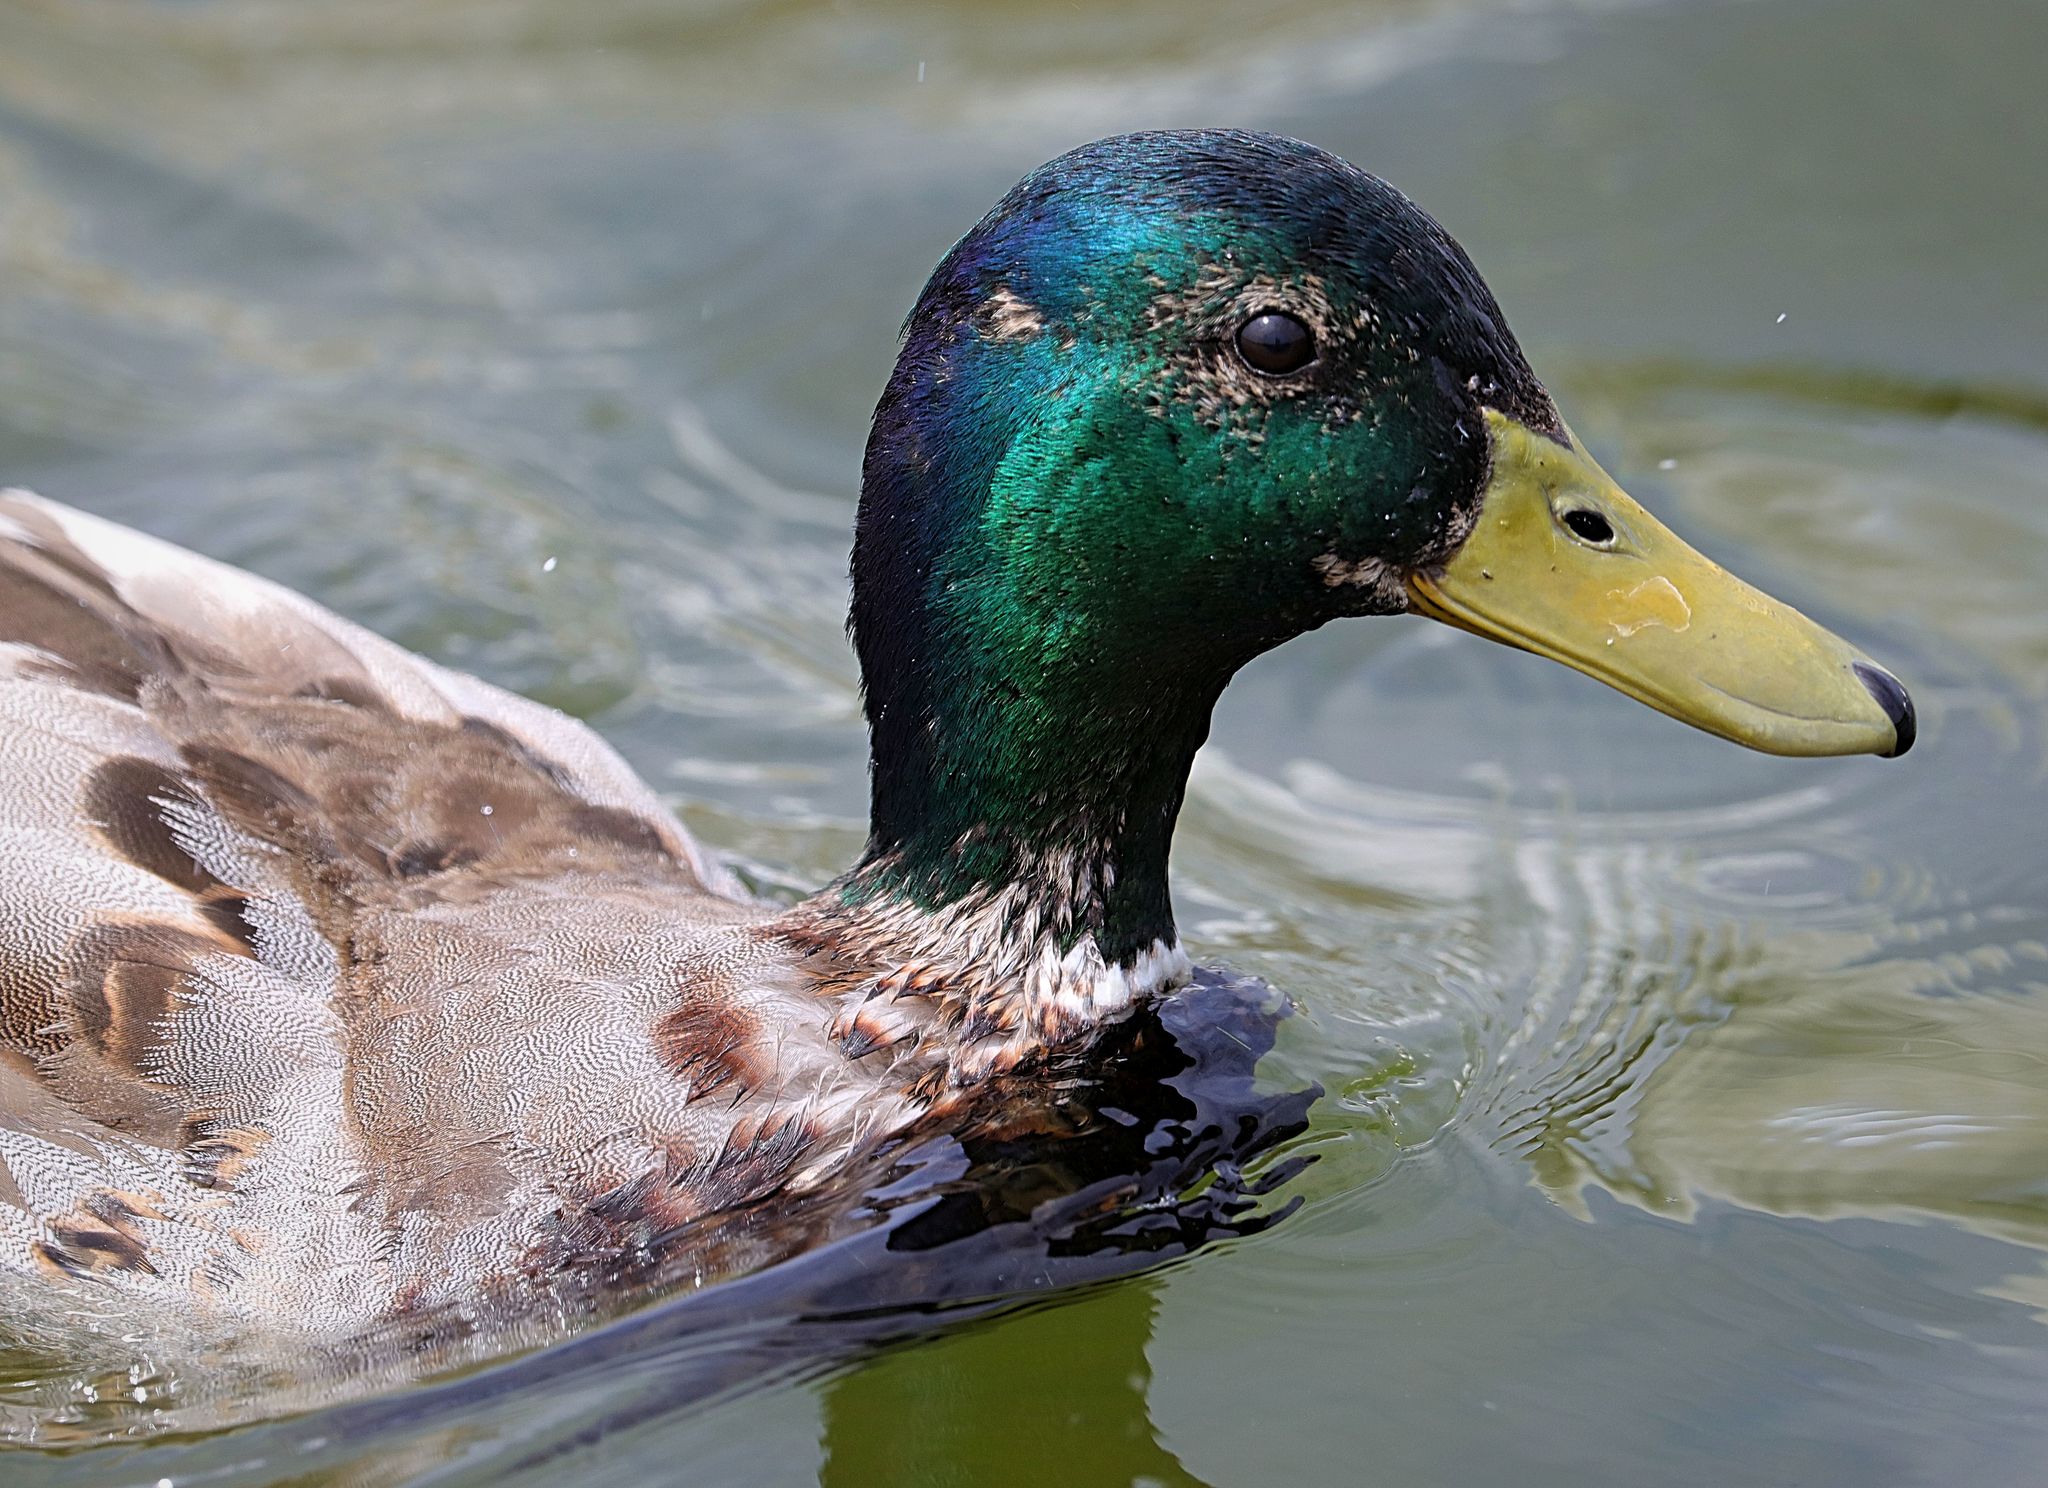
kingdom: Animalia
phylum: Chordata
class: Aves
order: Anseriformes
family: Anatidae
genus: Anas
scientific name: Anas platyrhynchos
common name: Mallard
